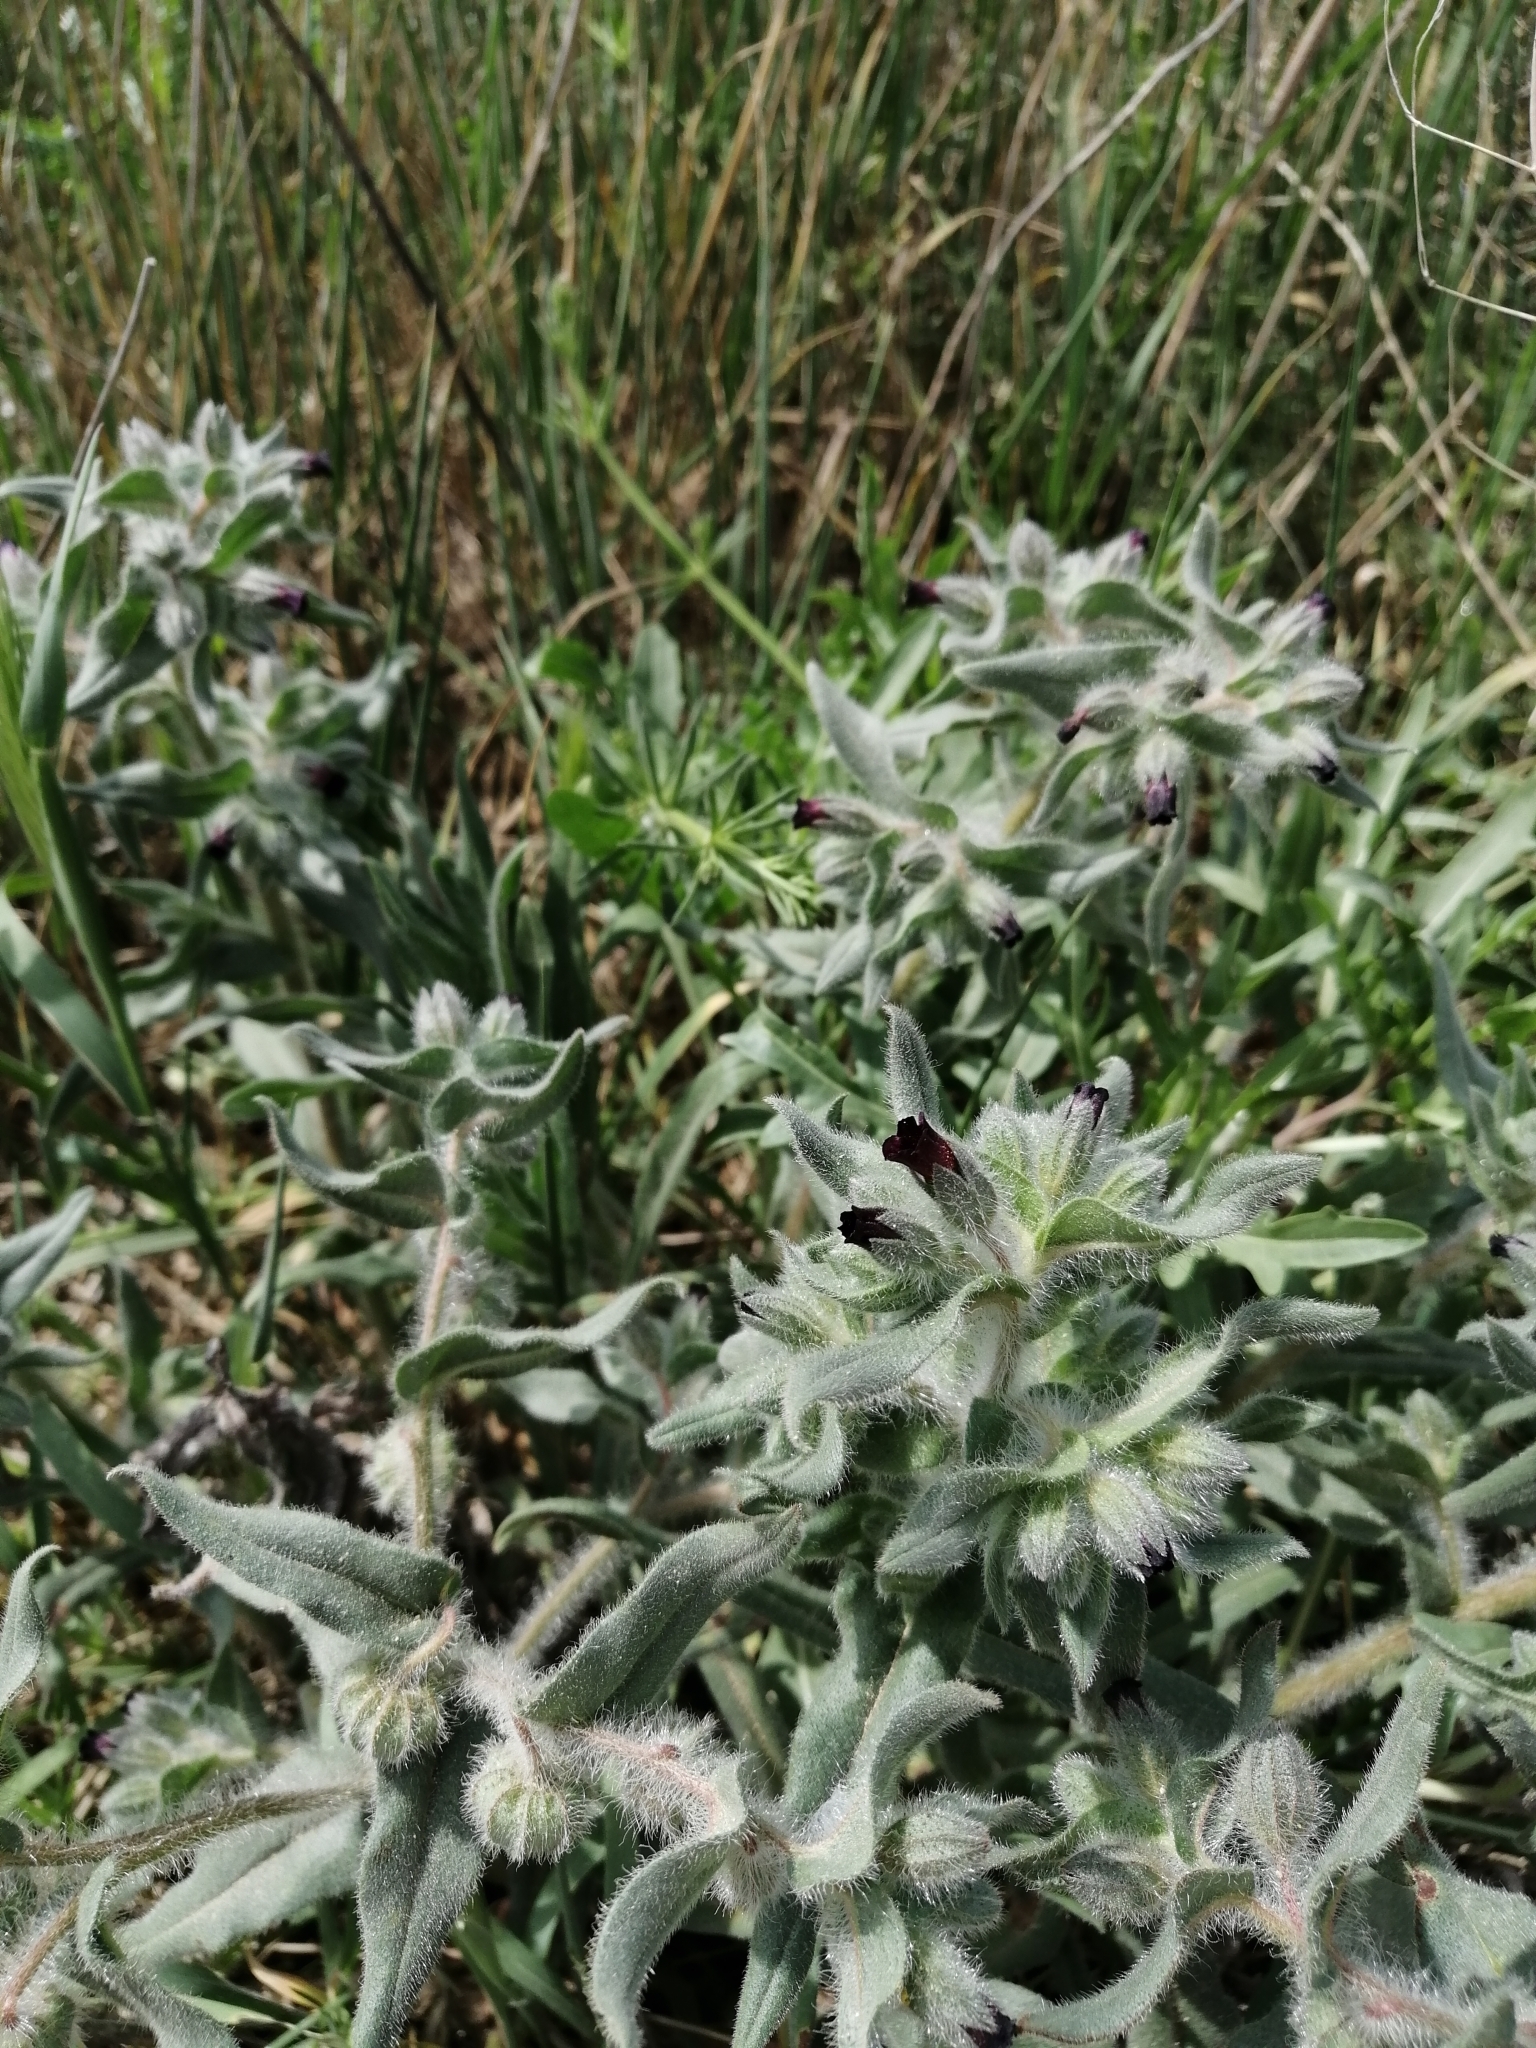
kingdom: Plantae
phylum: Tracheophyta
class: Magnoliopsida
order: Boraginales
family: Boraginaceae
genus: Nonea
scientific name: Nonea pulla
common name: Brown nonea
